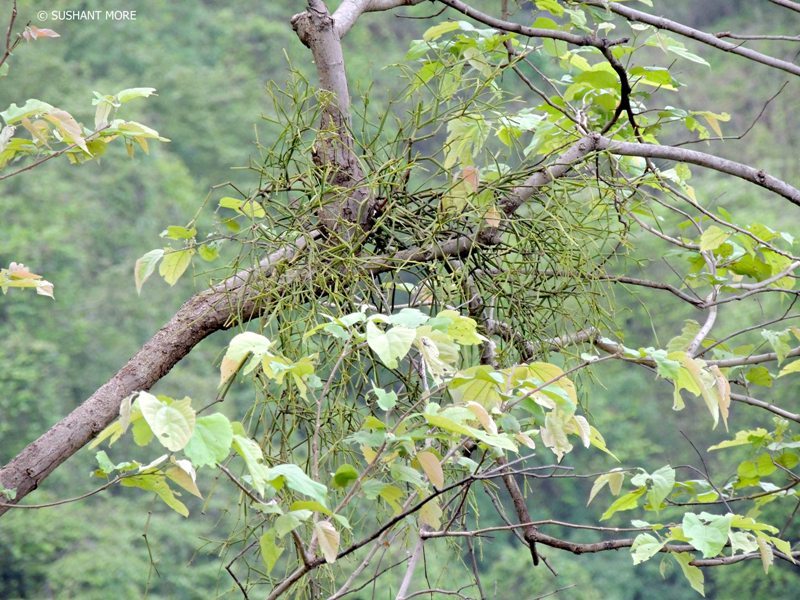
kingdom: Plantae
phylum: Tracheophyta
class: Magnoliopsida
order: Santalales
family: Viscaceae
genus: Viscum
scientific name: Viscum articulatum
